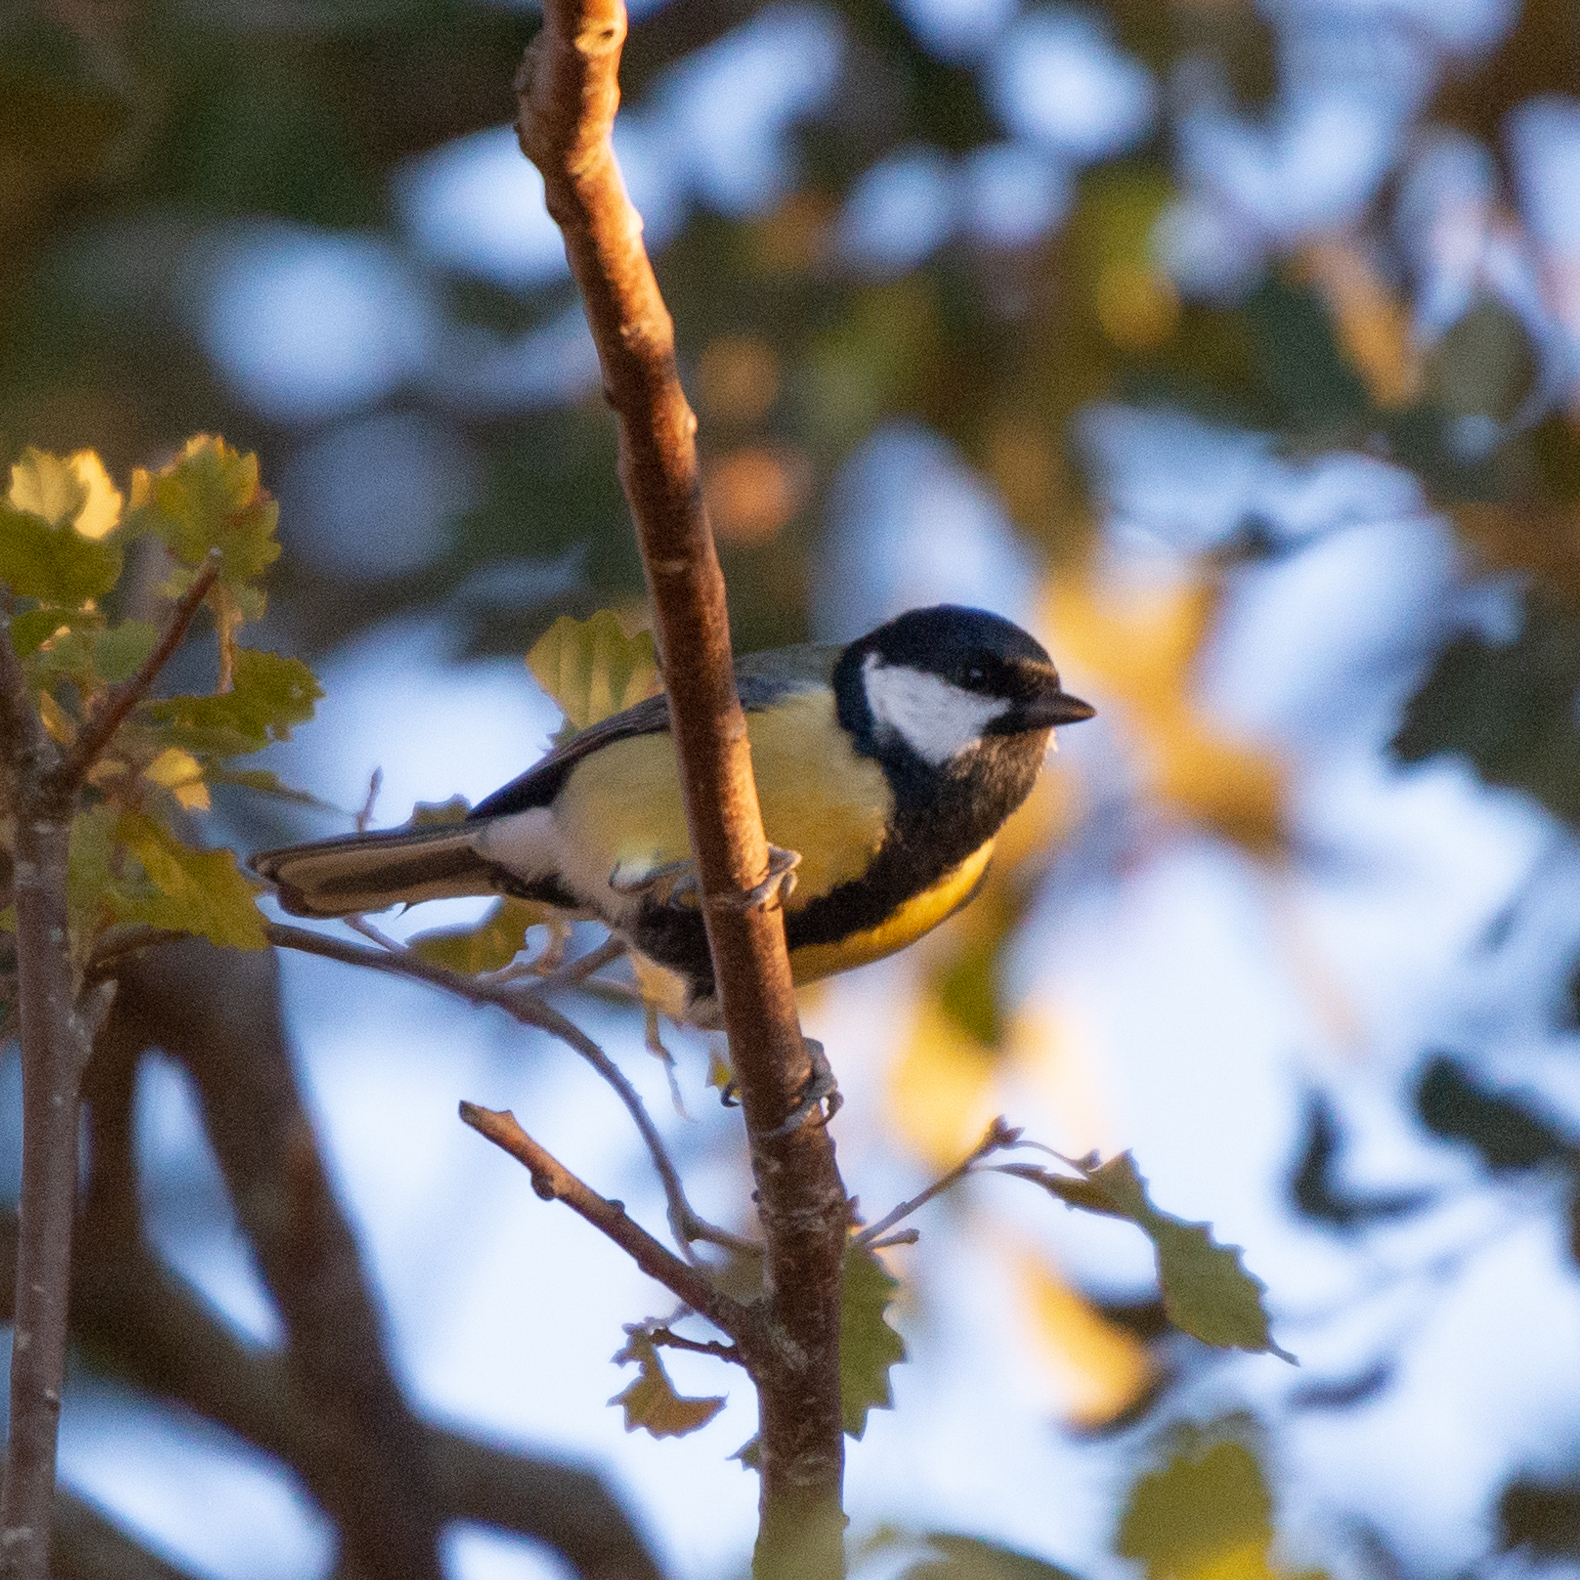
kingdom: Animalia
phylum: Chordata
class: Aves
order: Passeriformes
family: Paridae
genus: Parus
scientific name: Parus major
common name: Great tit
